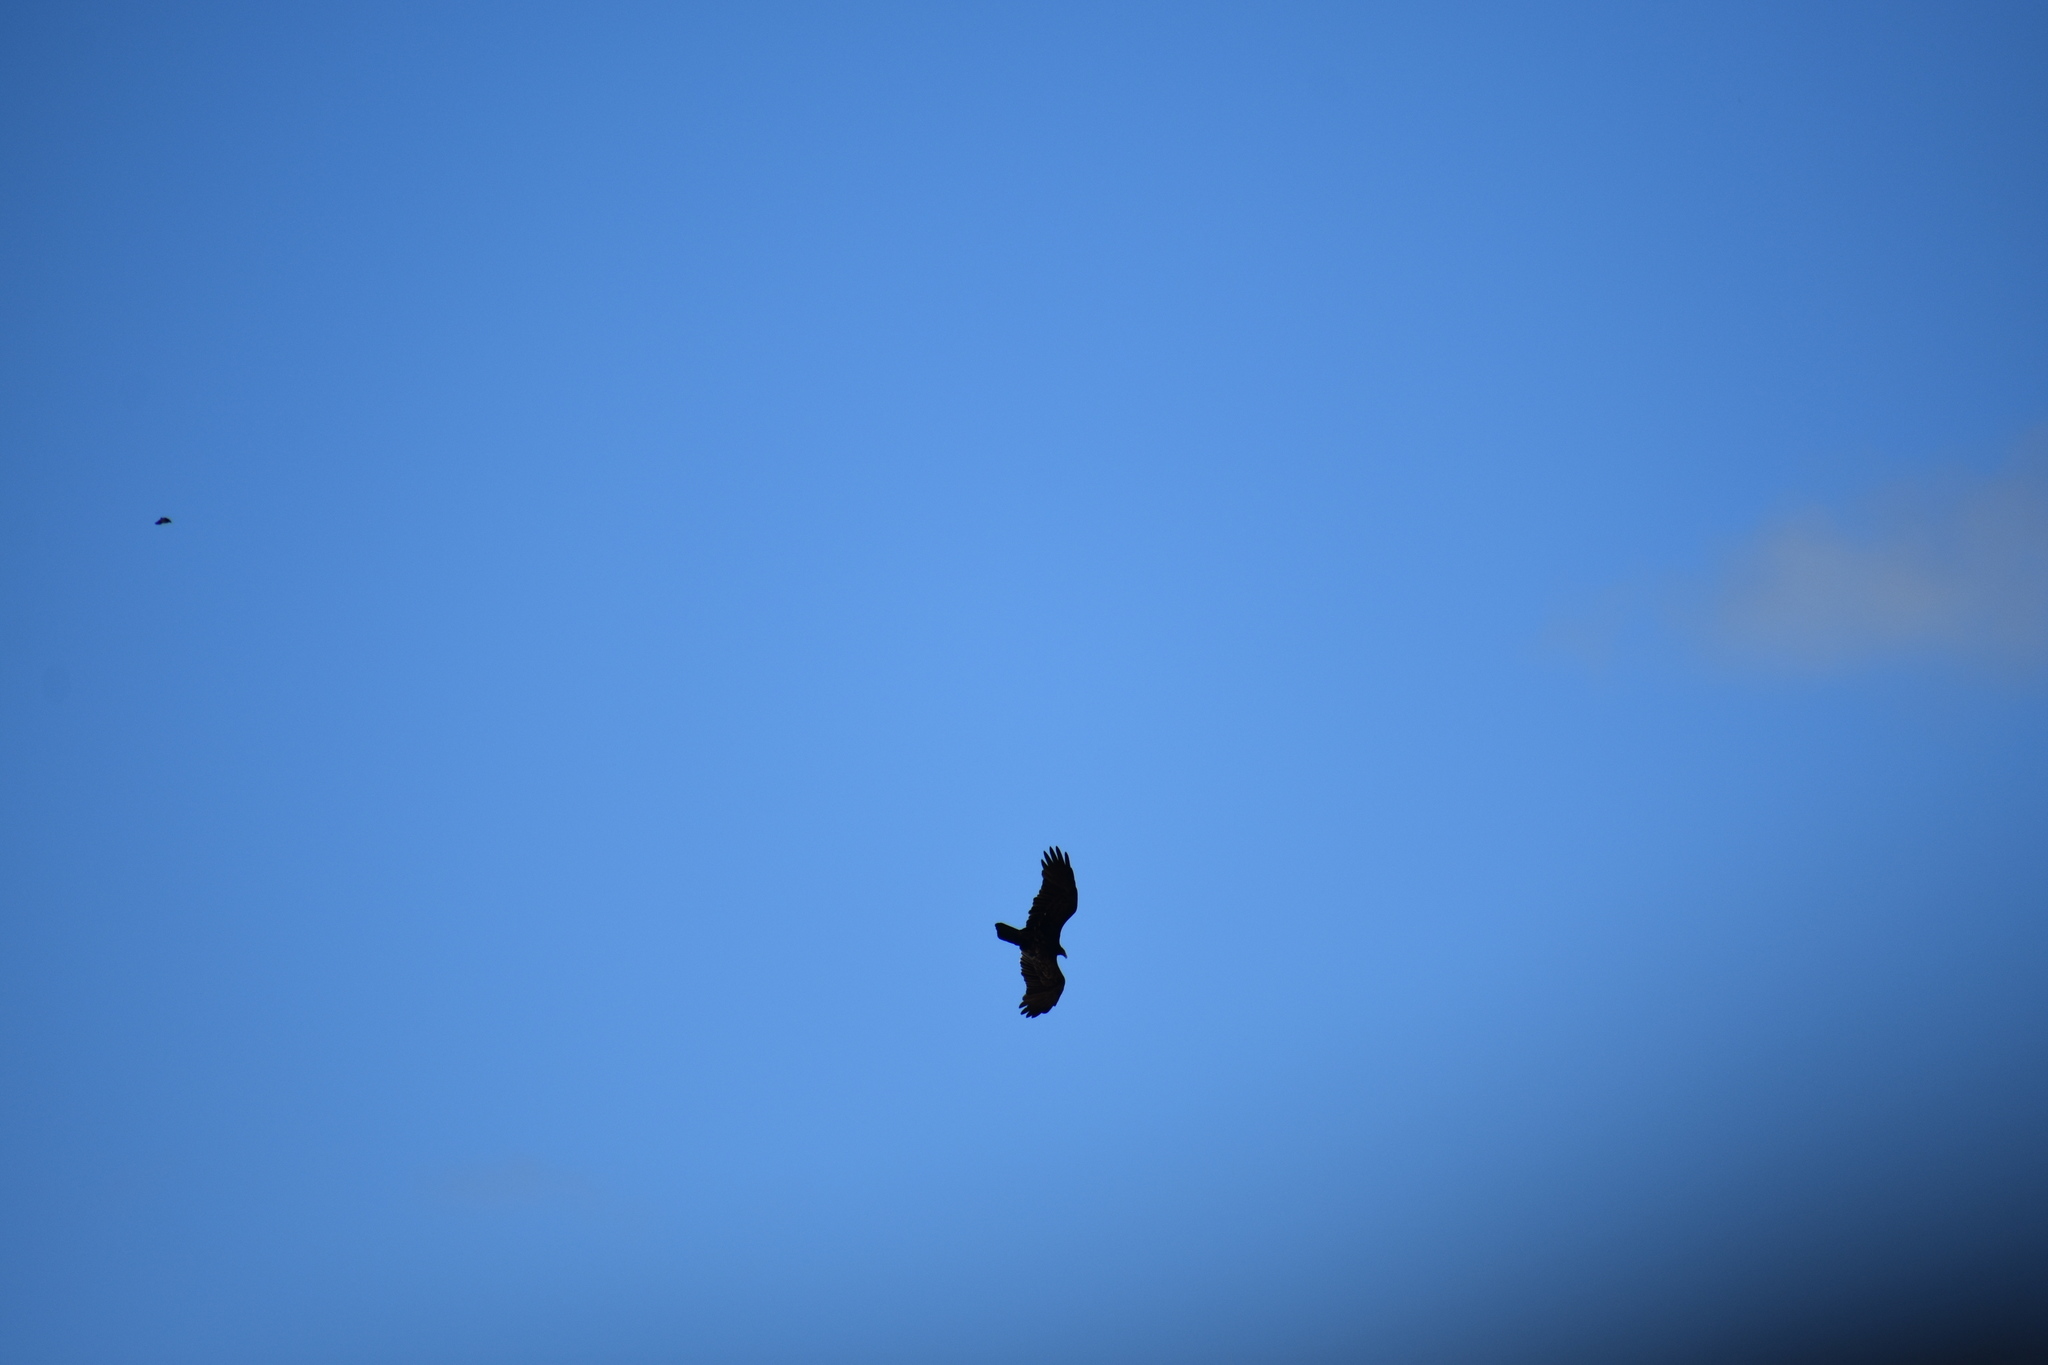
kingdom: Animalia
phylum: Chordata
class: Aves
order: Accipitriformes
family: Cathartidae
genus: Cathartes
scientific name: Cathartes aura
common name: Turkey vulture
